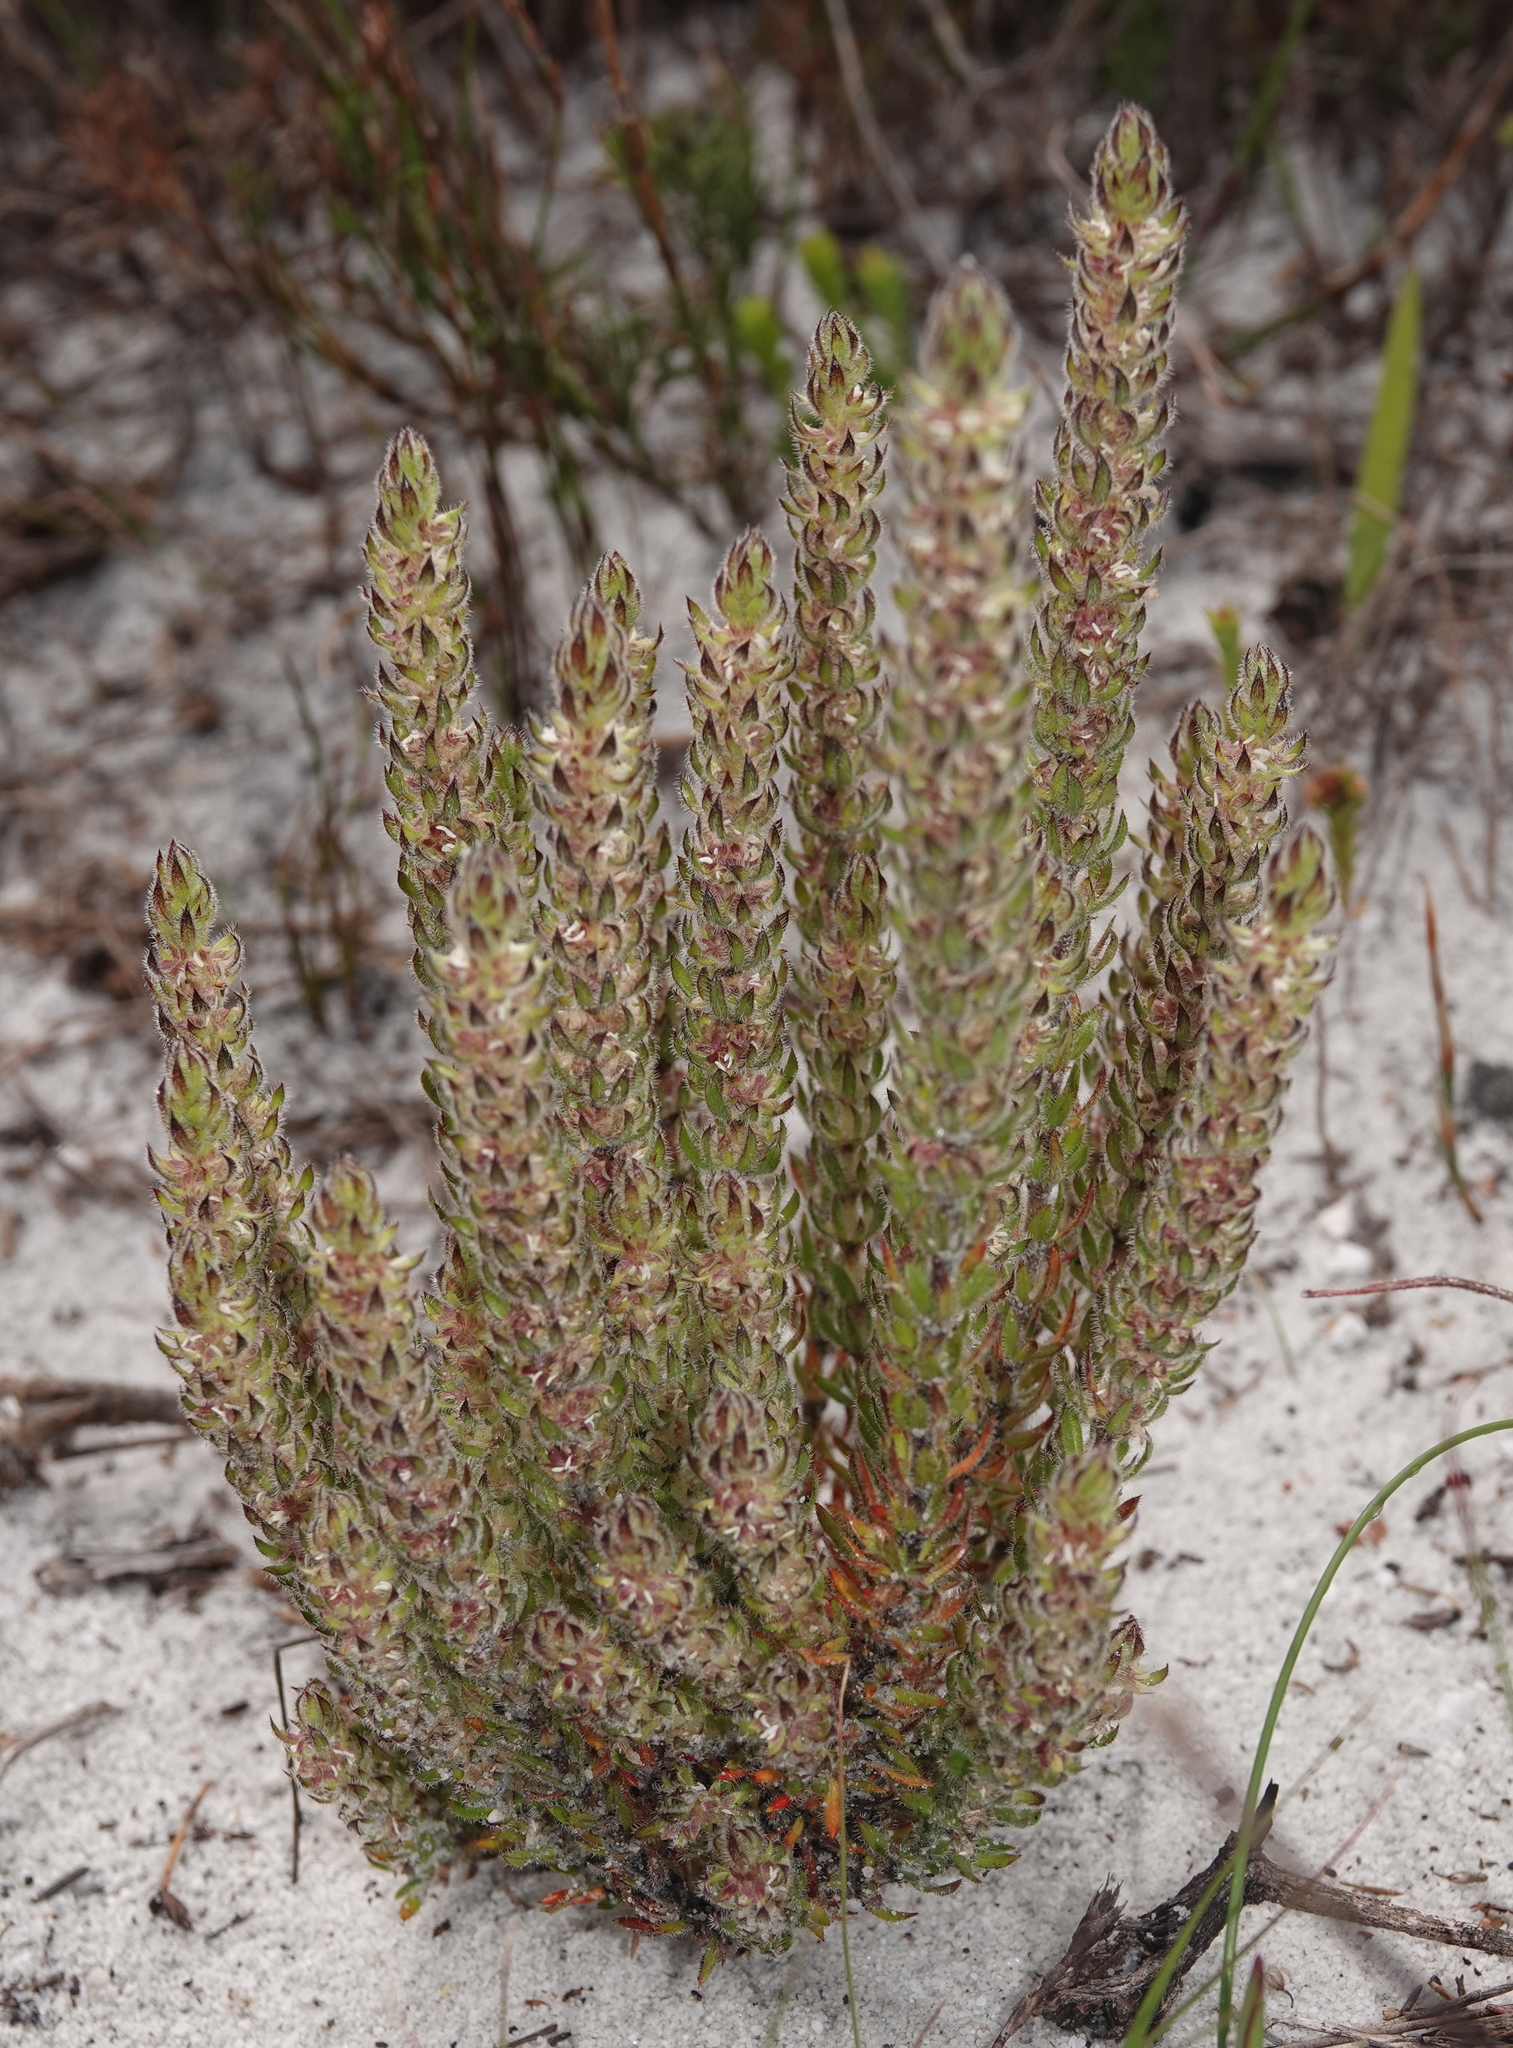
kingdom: Plantae
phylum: Tracheophyta
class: Magnoliopsida
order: Gentianales
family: Rubiaceae
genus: Anthospermum
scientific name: Anthospermum bergianum
